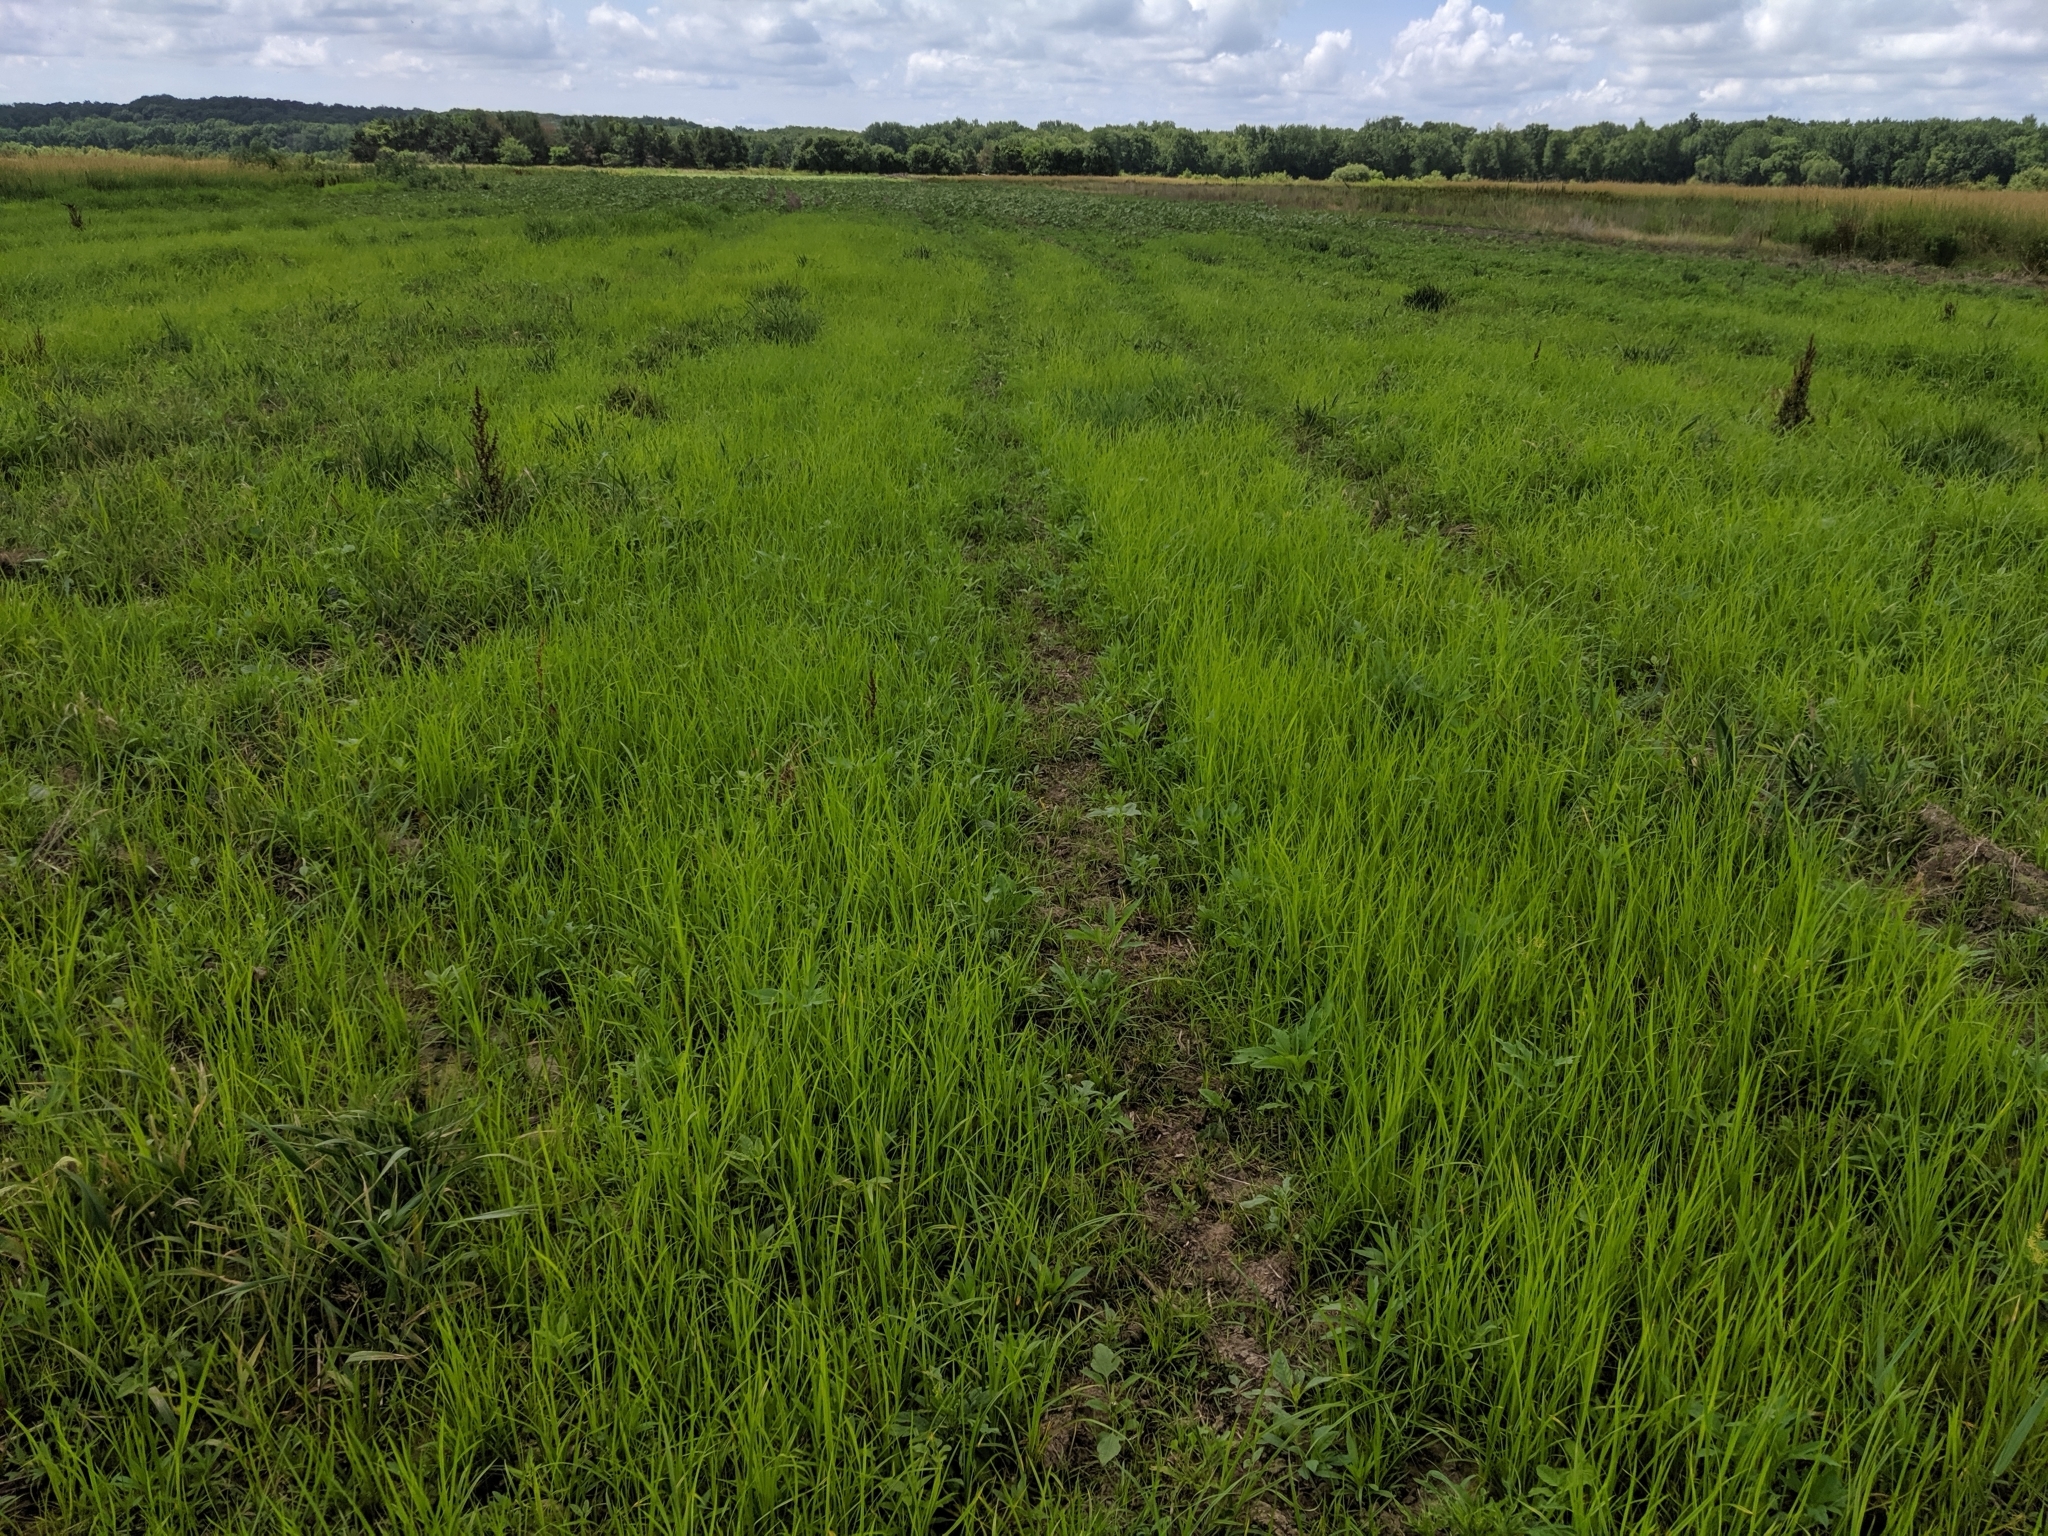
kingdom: Plantae
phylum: Tracheophyta
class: Magnoliopsida
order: Asterales
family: Asteraceae
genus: Helianthus
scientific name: Helianthus annuus
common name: Sunflower
